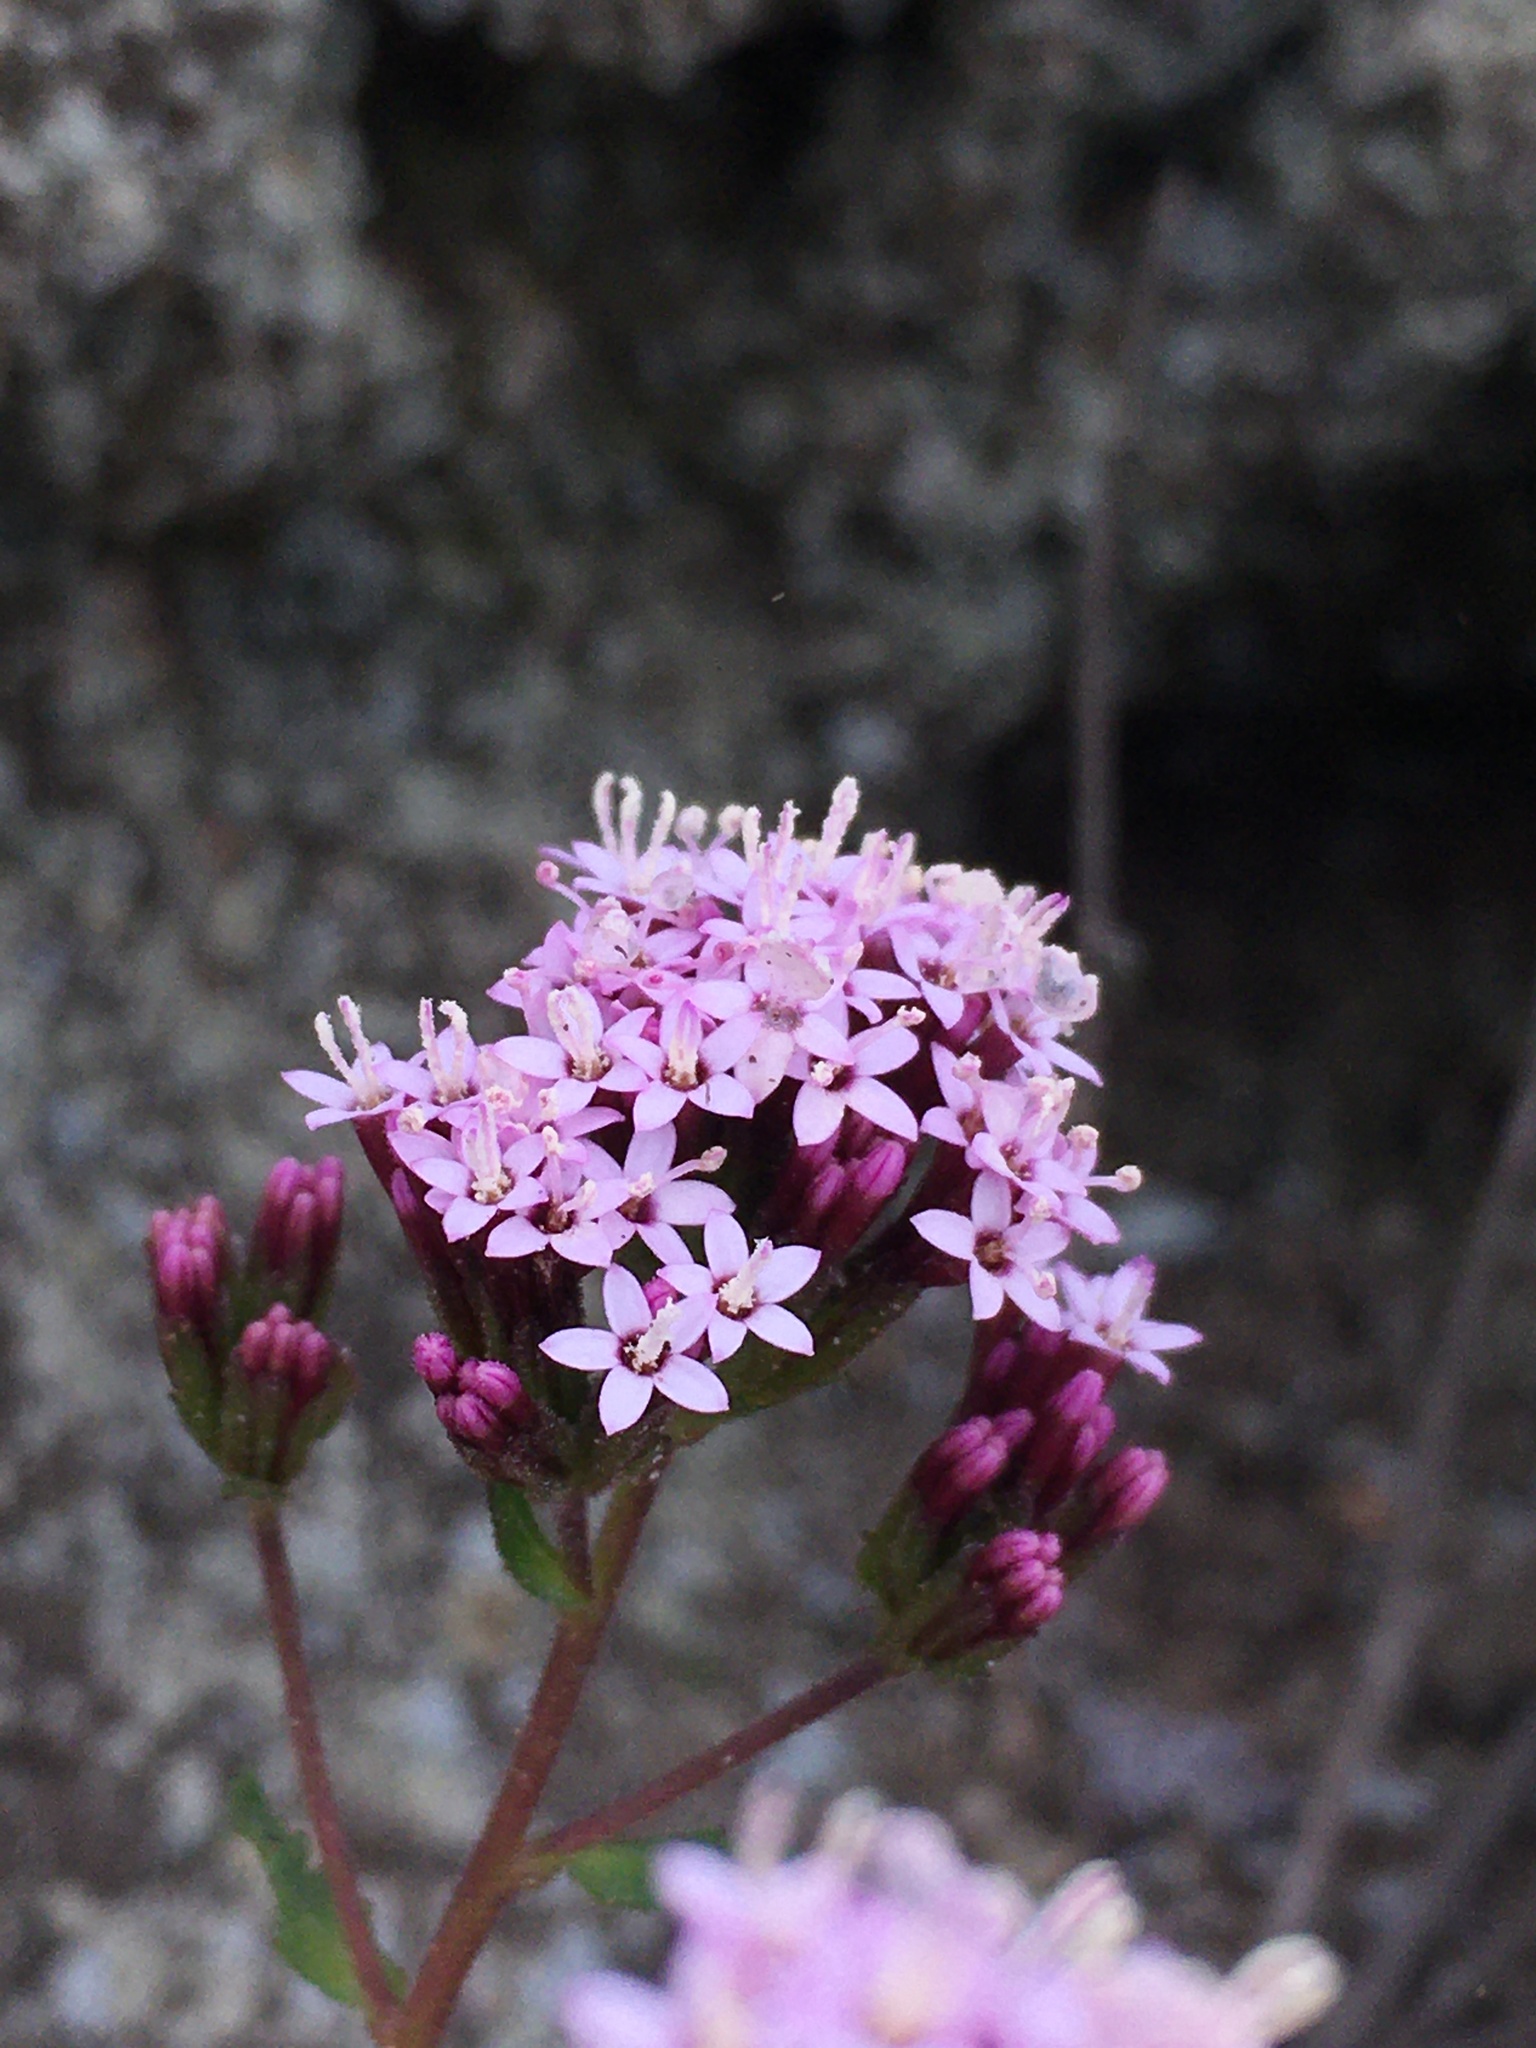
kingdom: Plantae
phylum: Tracheophyta
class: Magnoliopsida
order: Asterales
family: Asteraceae
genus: Stevia
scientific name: Stevia philippiana
